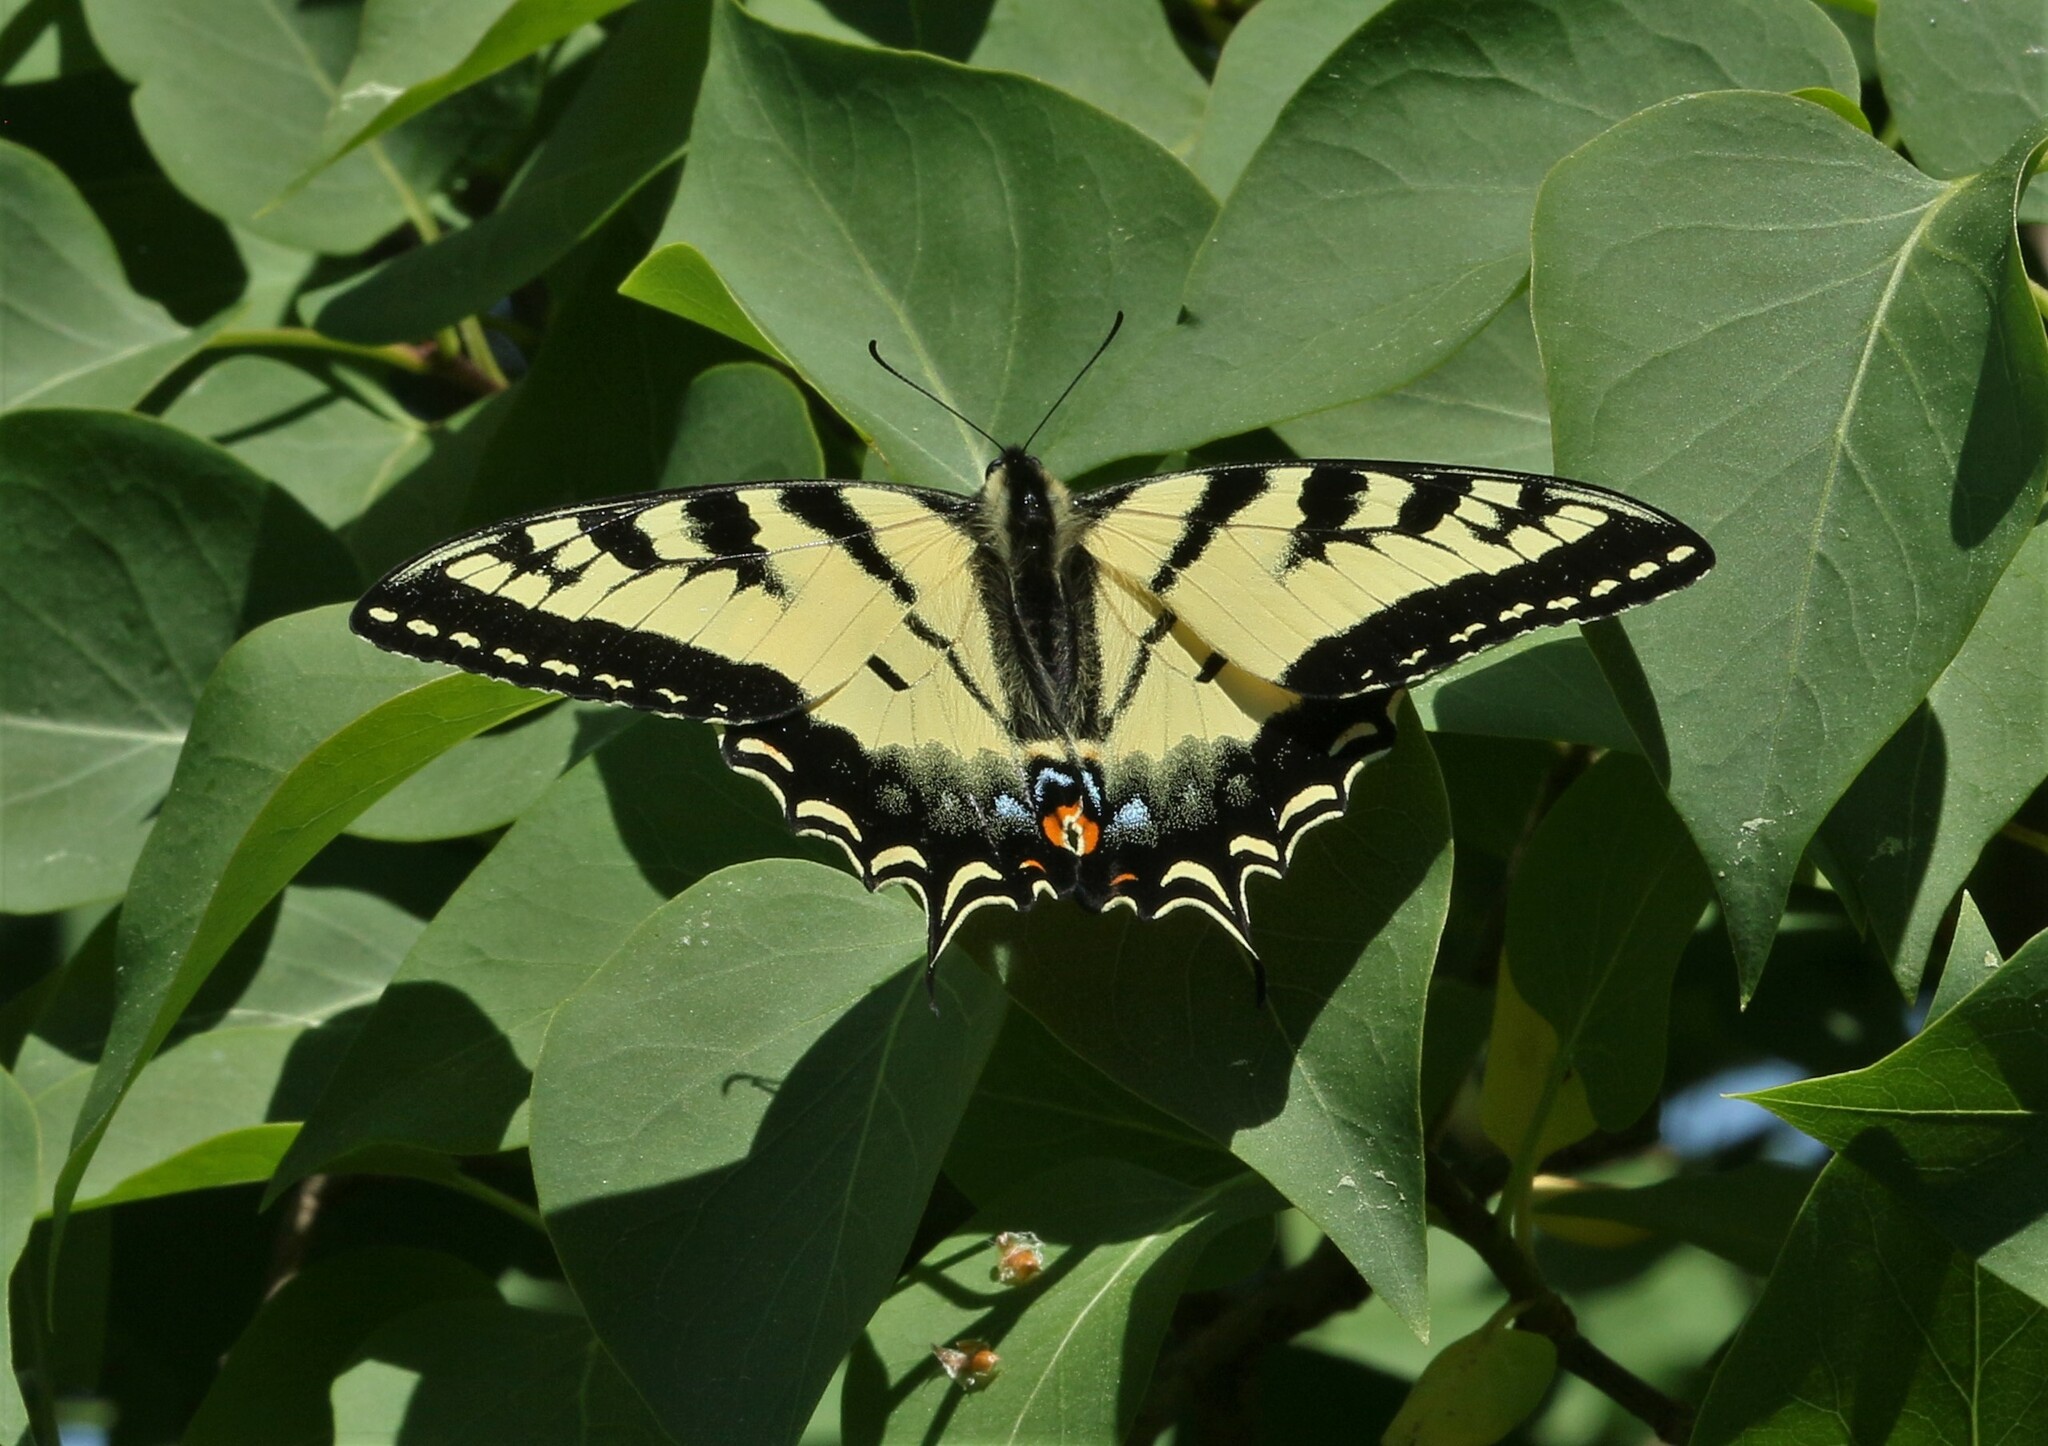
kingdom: Animalia
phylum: Arthropoda
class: Insecta
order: Lepidoptera
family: Papilionidae
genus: Papilio
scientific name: Papilio canadensis
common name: Canadian tiger swallowtail
